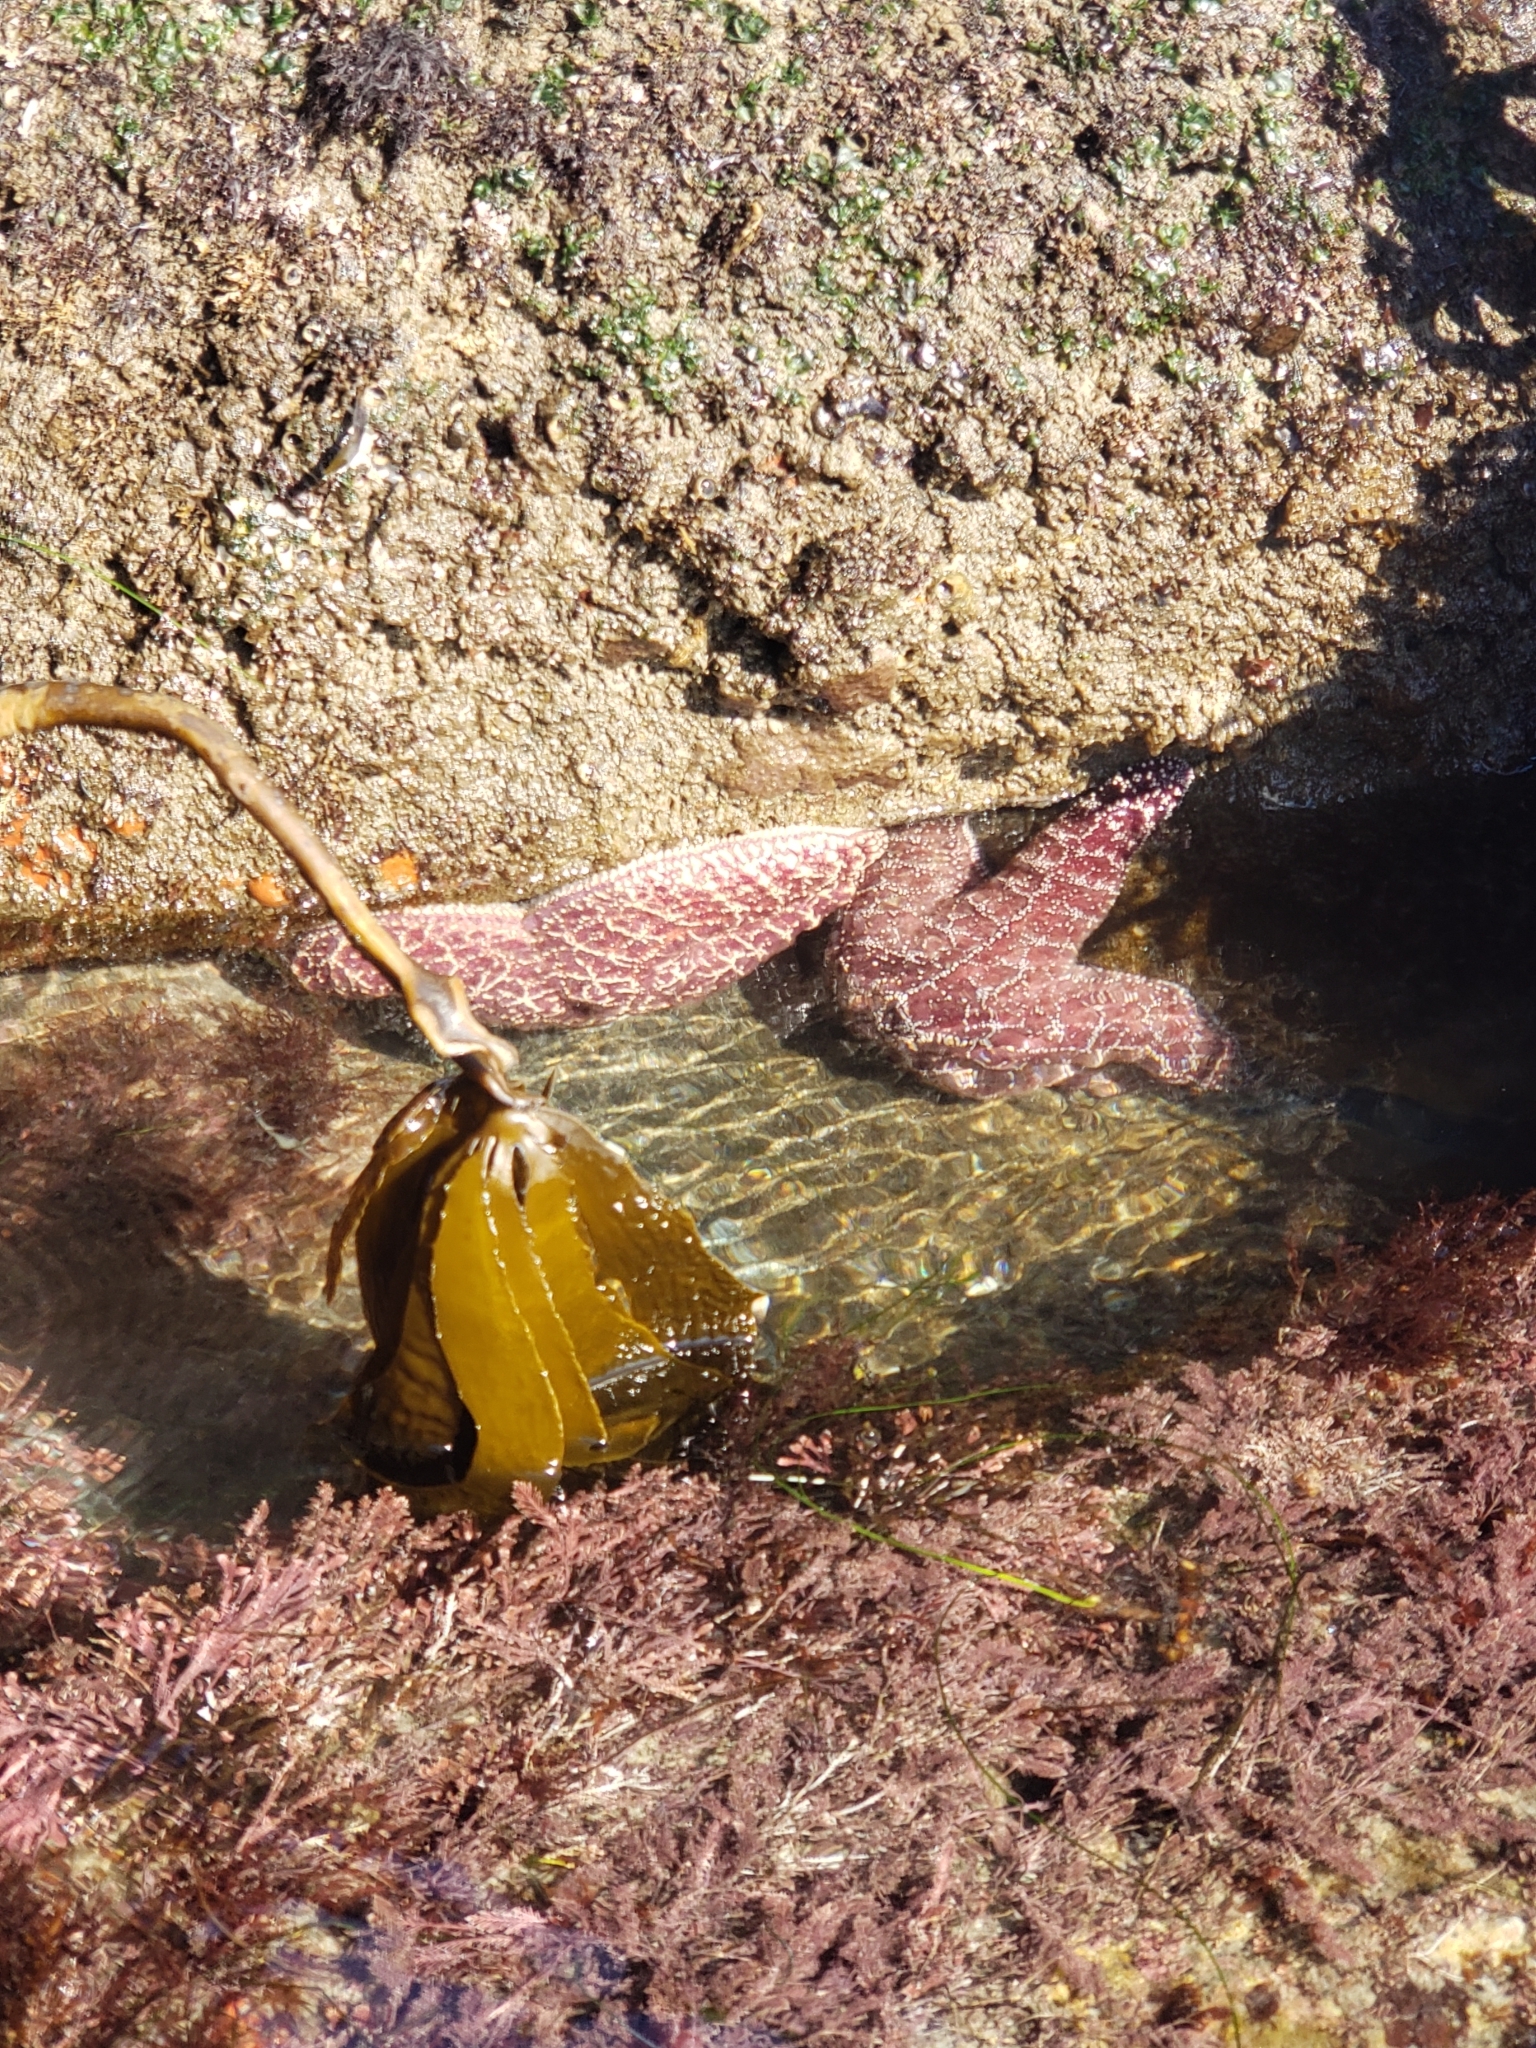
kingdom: Animalia
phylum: Echinodermata
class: Asteroidea
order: Forcipulatida
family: Asteriidae
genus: Pisaster
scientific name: Pisaster ochraceus
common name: Ochre stars
